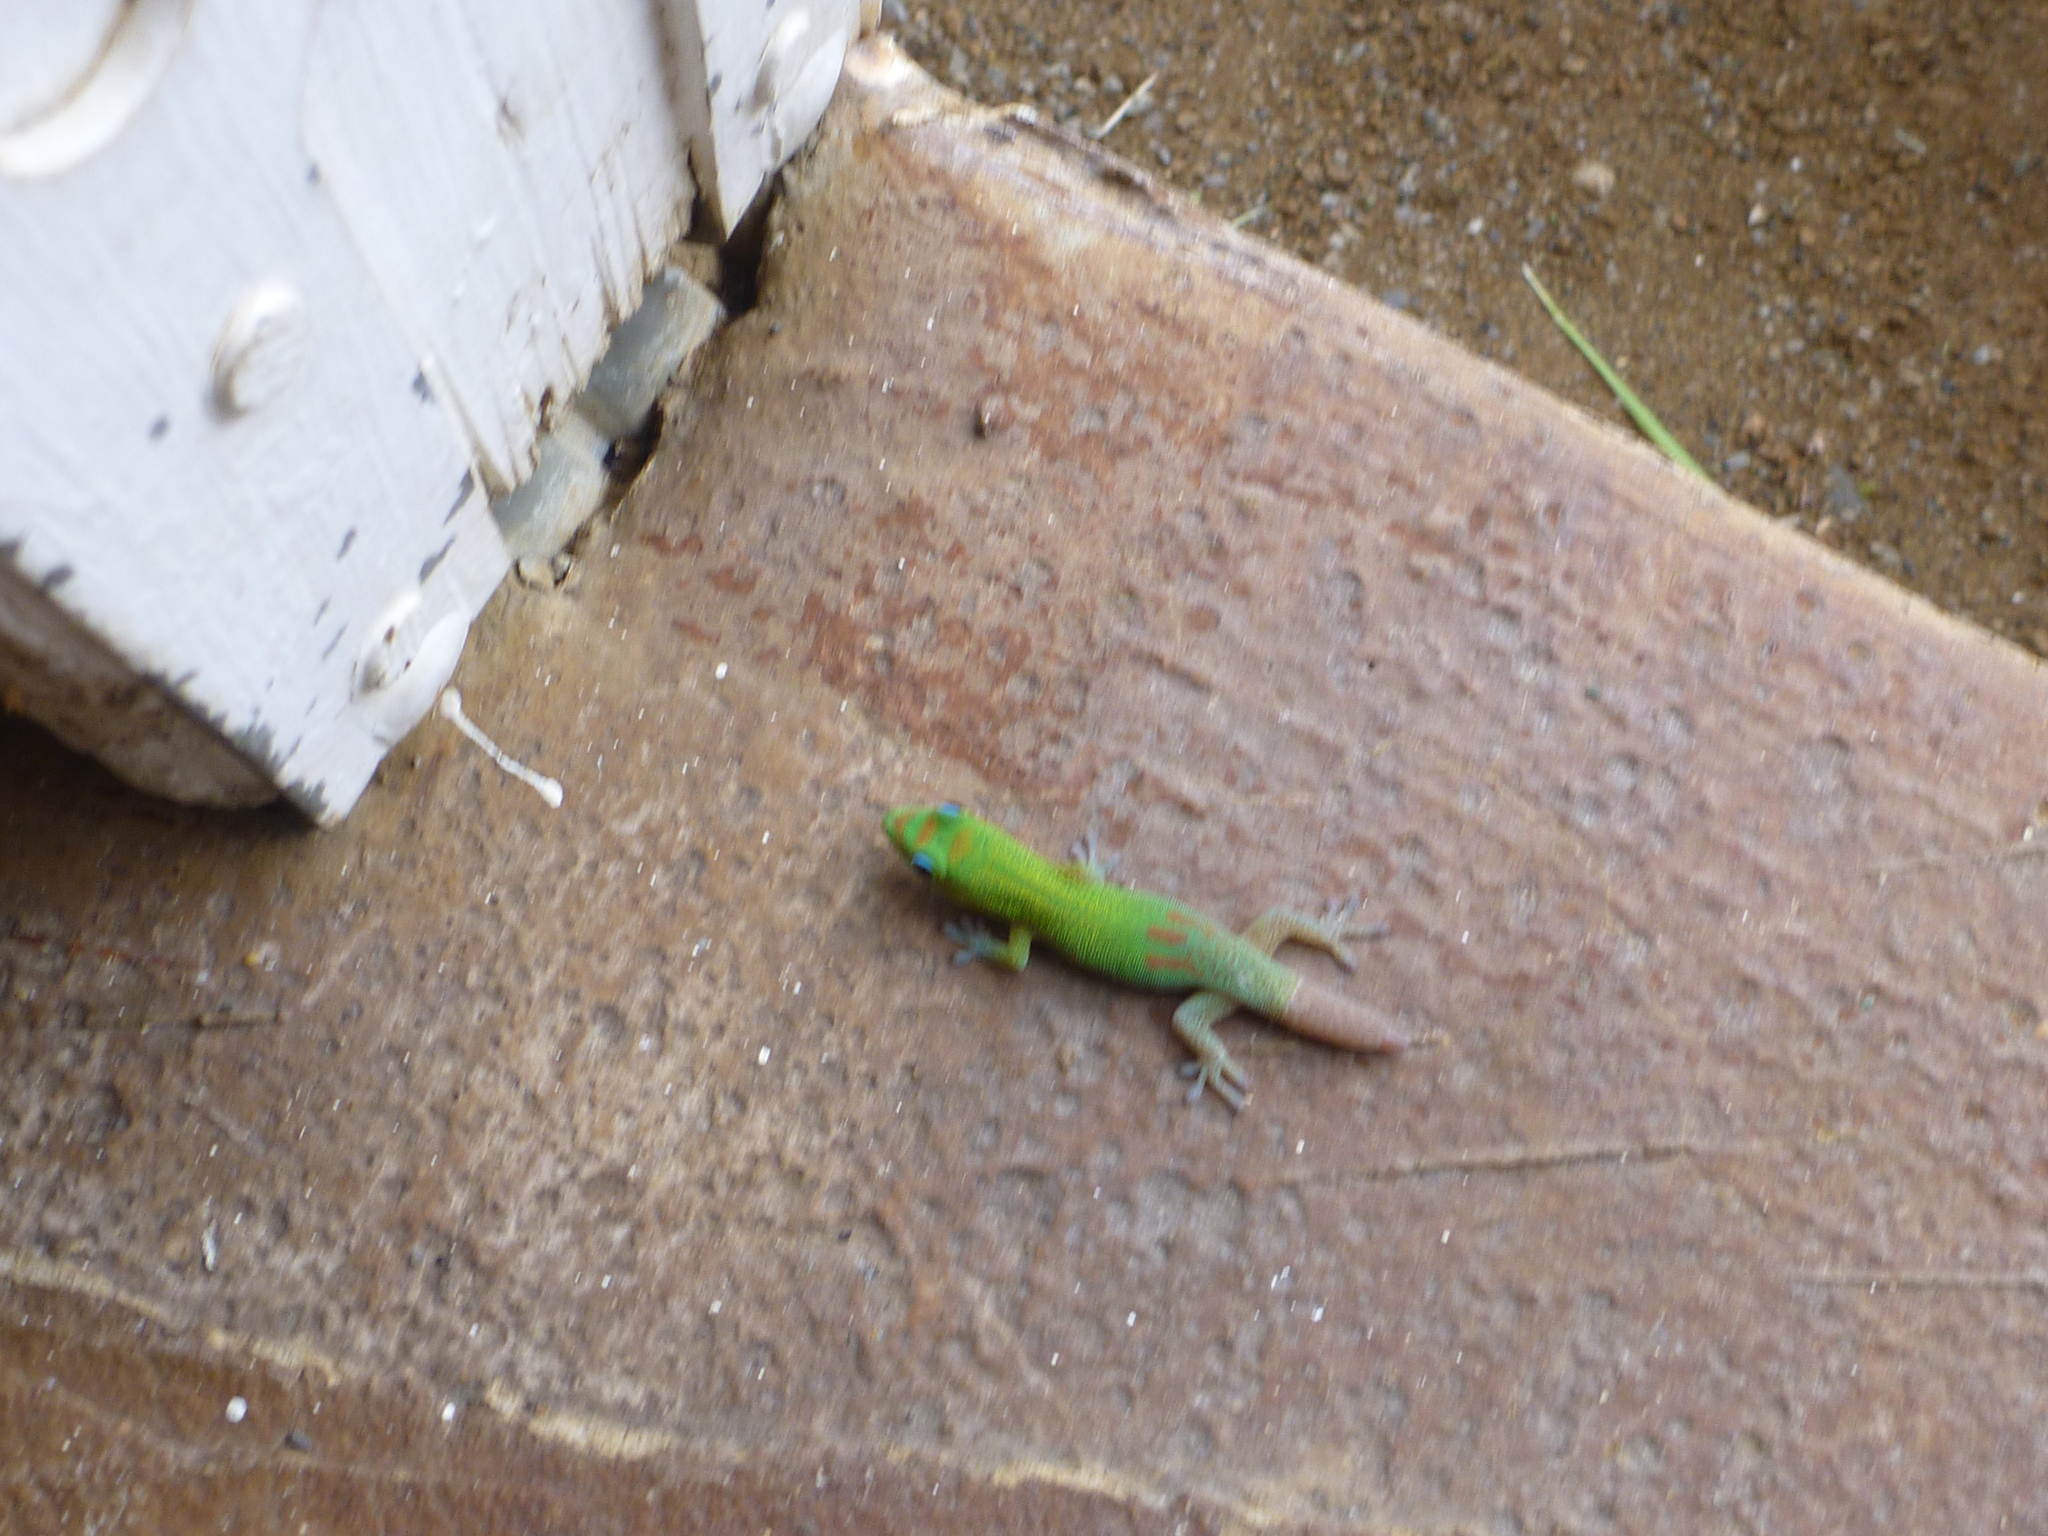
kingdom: Animalia
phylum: Chordata
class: Squamata
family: Gekkonidae
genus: Phelsuma
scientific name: Phelsuma laticauda
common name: Gold dust day gecko
